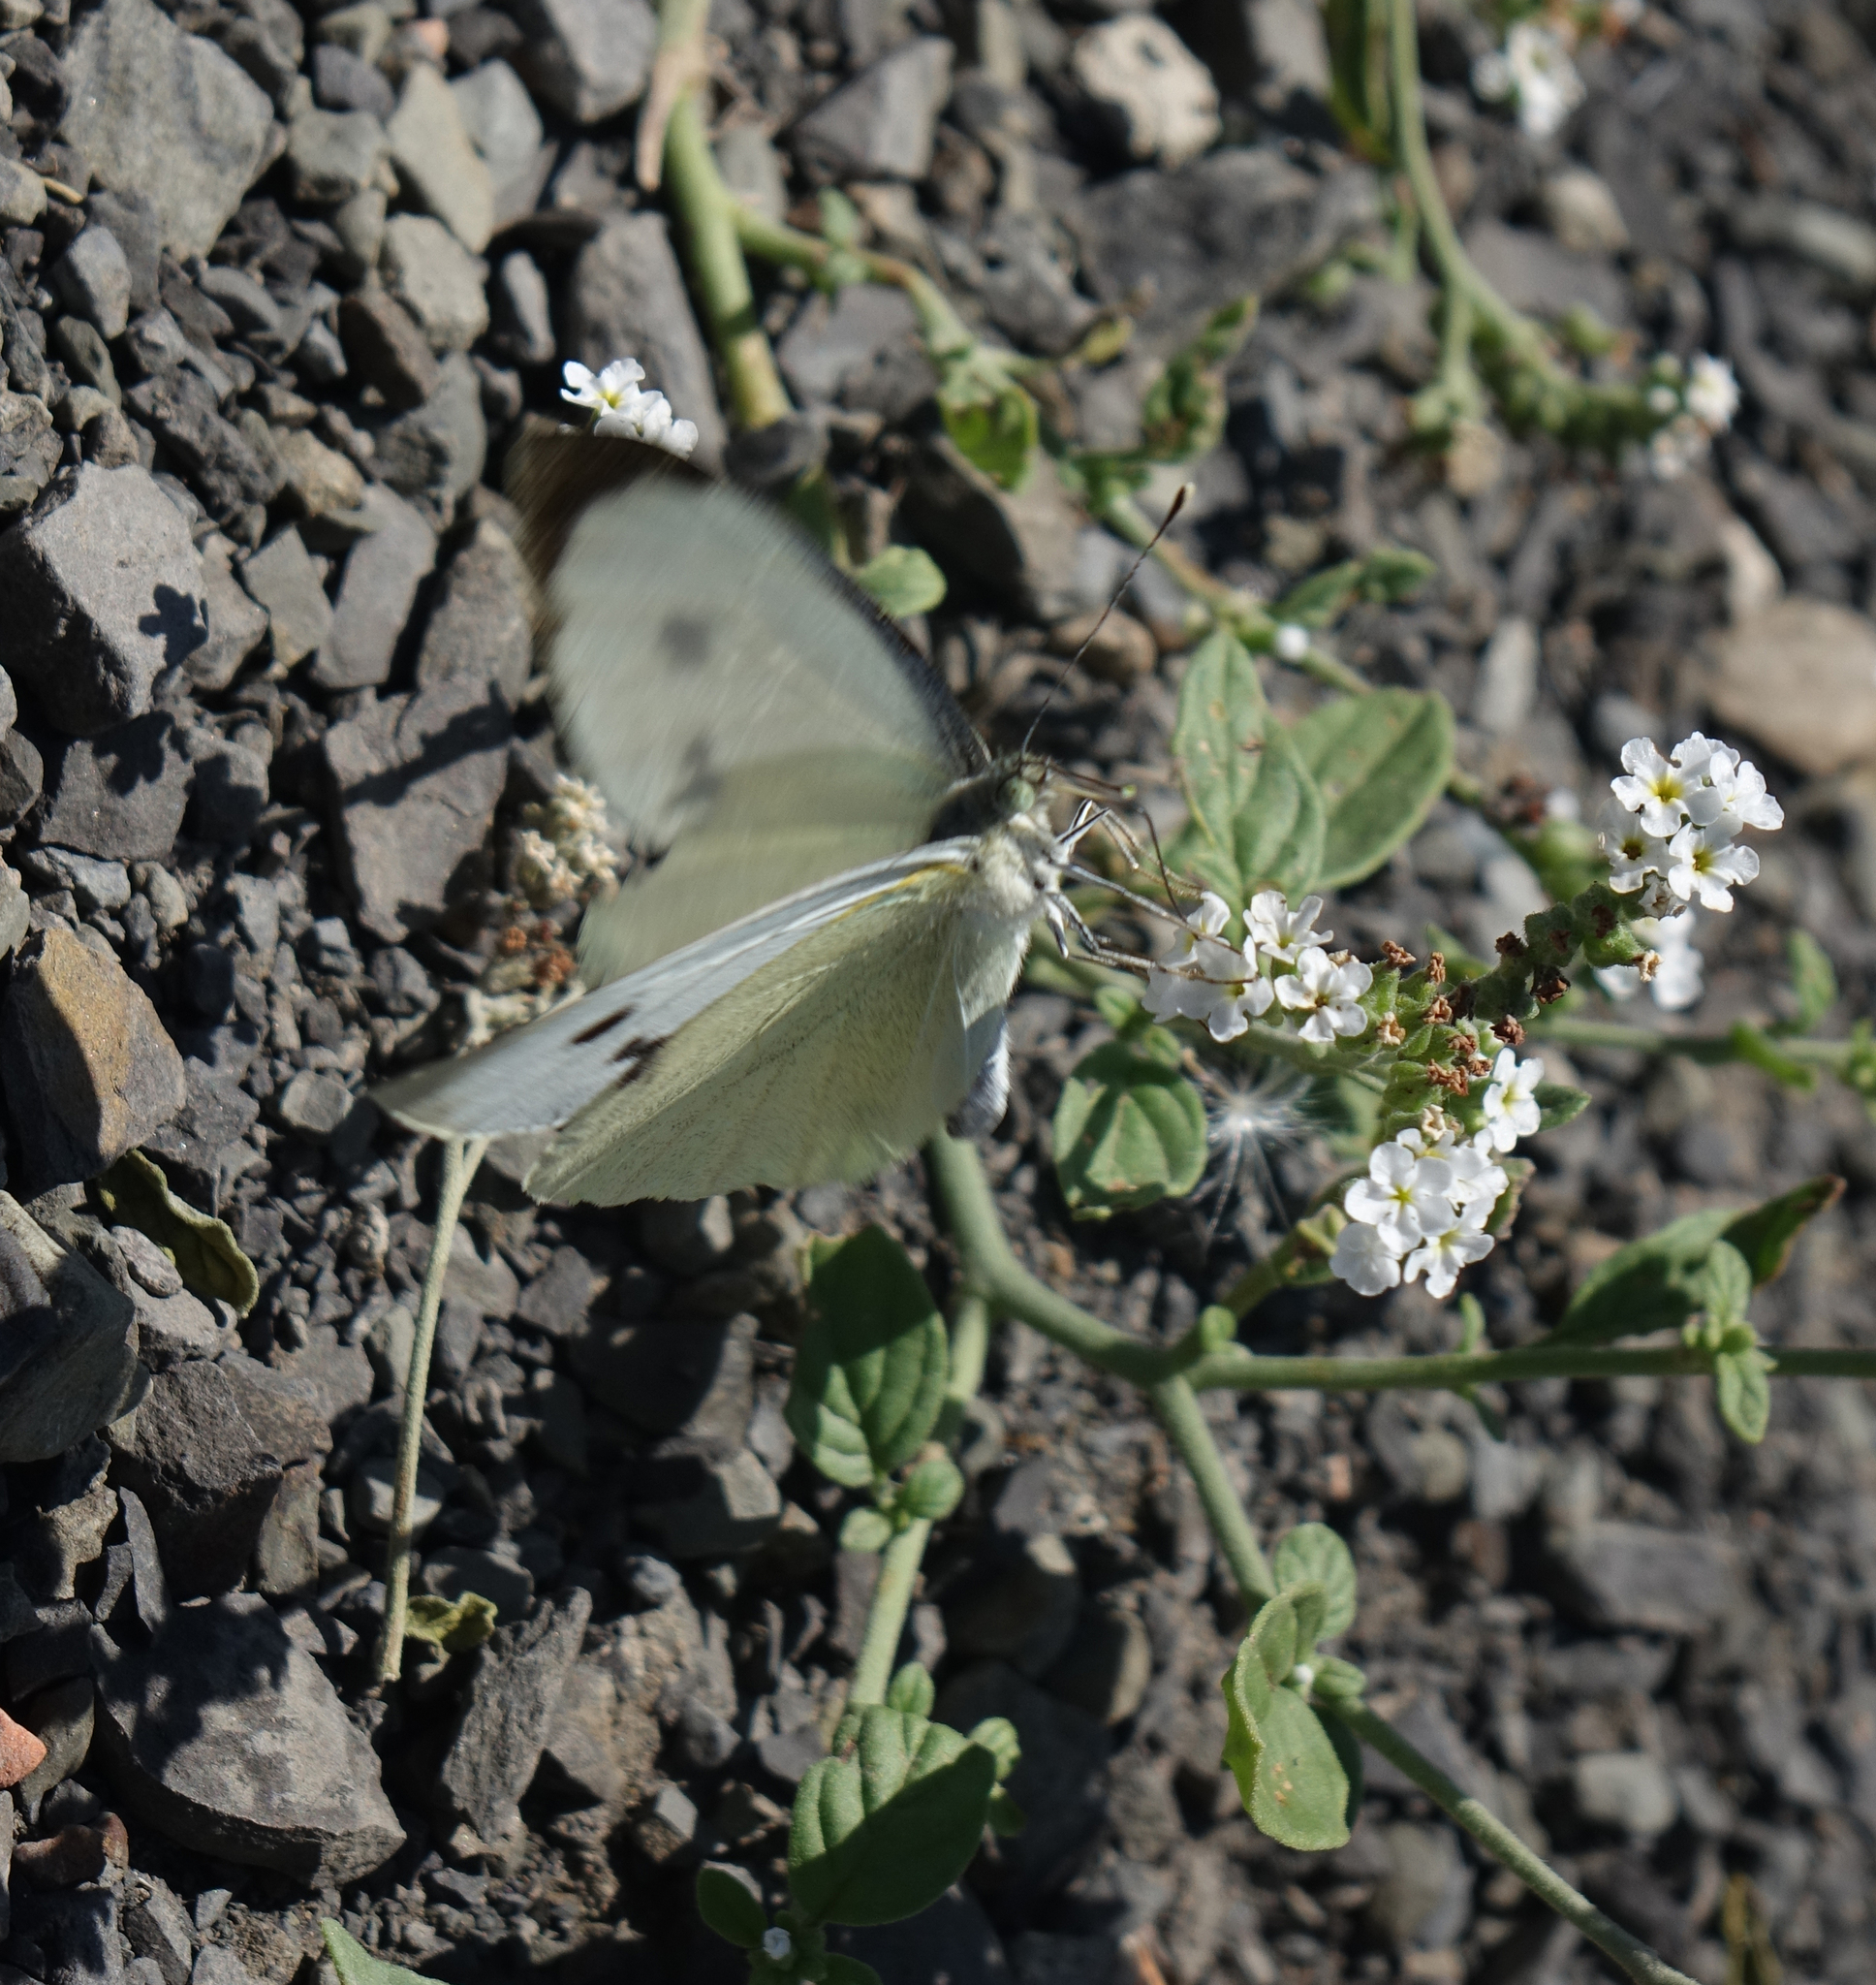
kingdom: Animalia
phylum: Arthropoda
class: Insecta
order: Lepidoptera
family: Pieridae
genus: Pieris
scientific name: Pieris brassicae
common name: Large white
